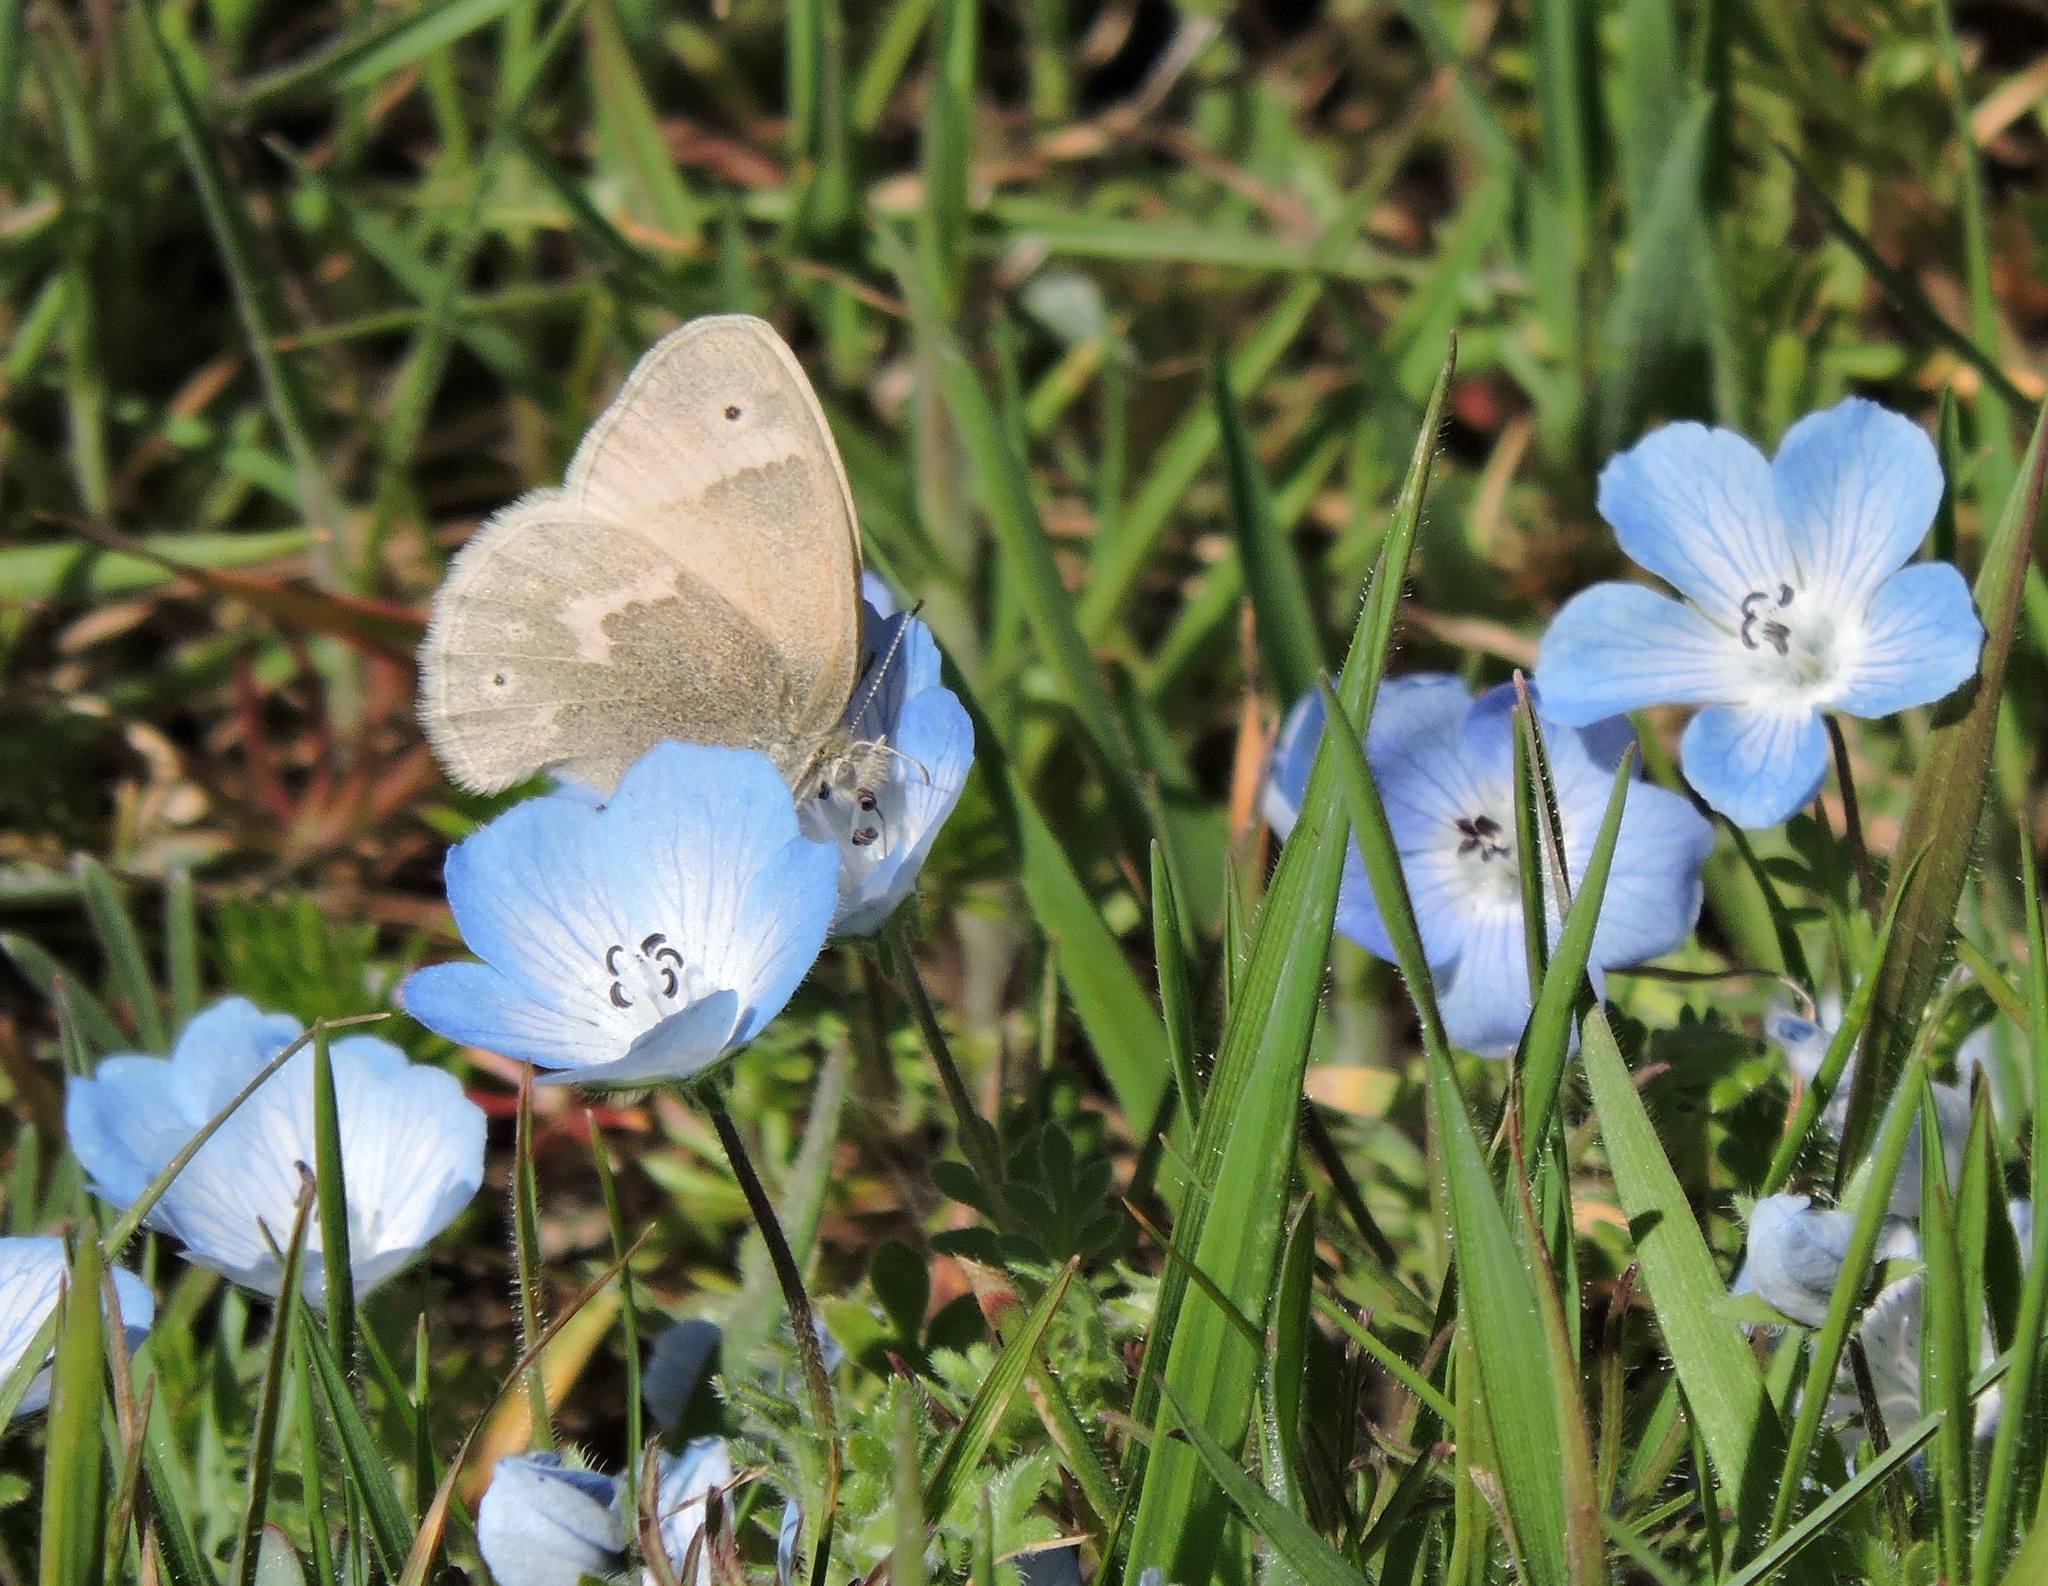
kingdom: Plantae
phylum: Tracheophyta
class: Magnoliopsida
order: Boraginales
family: Hydrophyllaceae
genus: Nemophila
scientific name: Nemophila menziesii
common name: Baby's-blue-eyes
